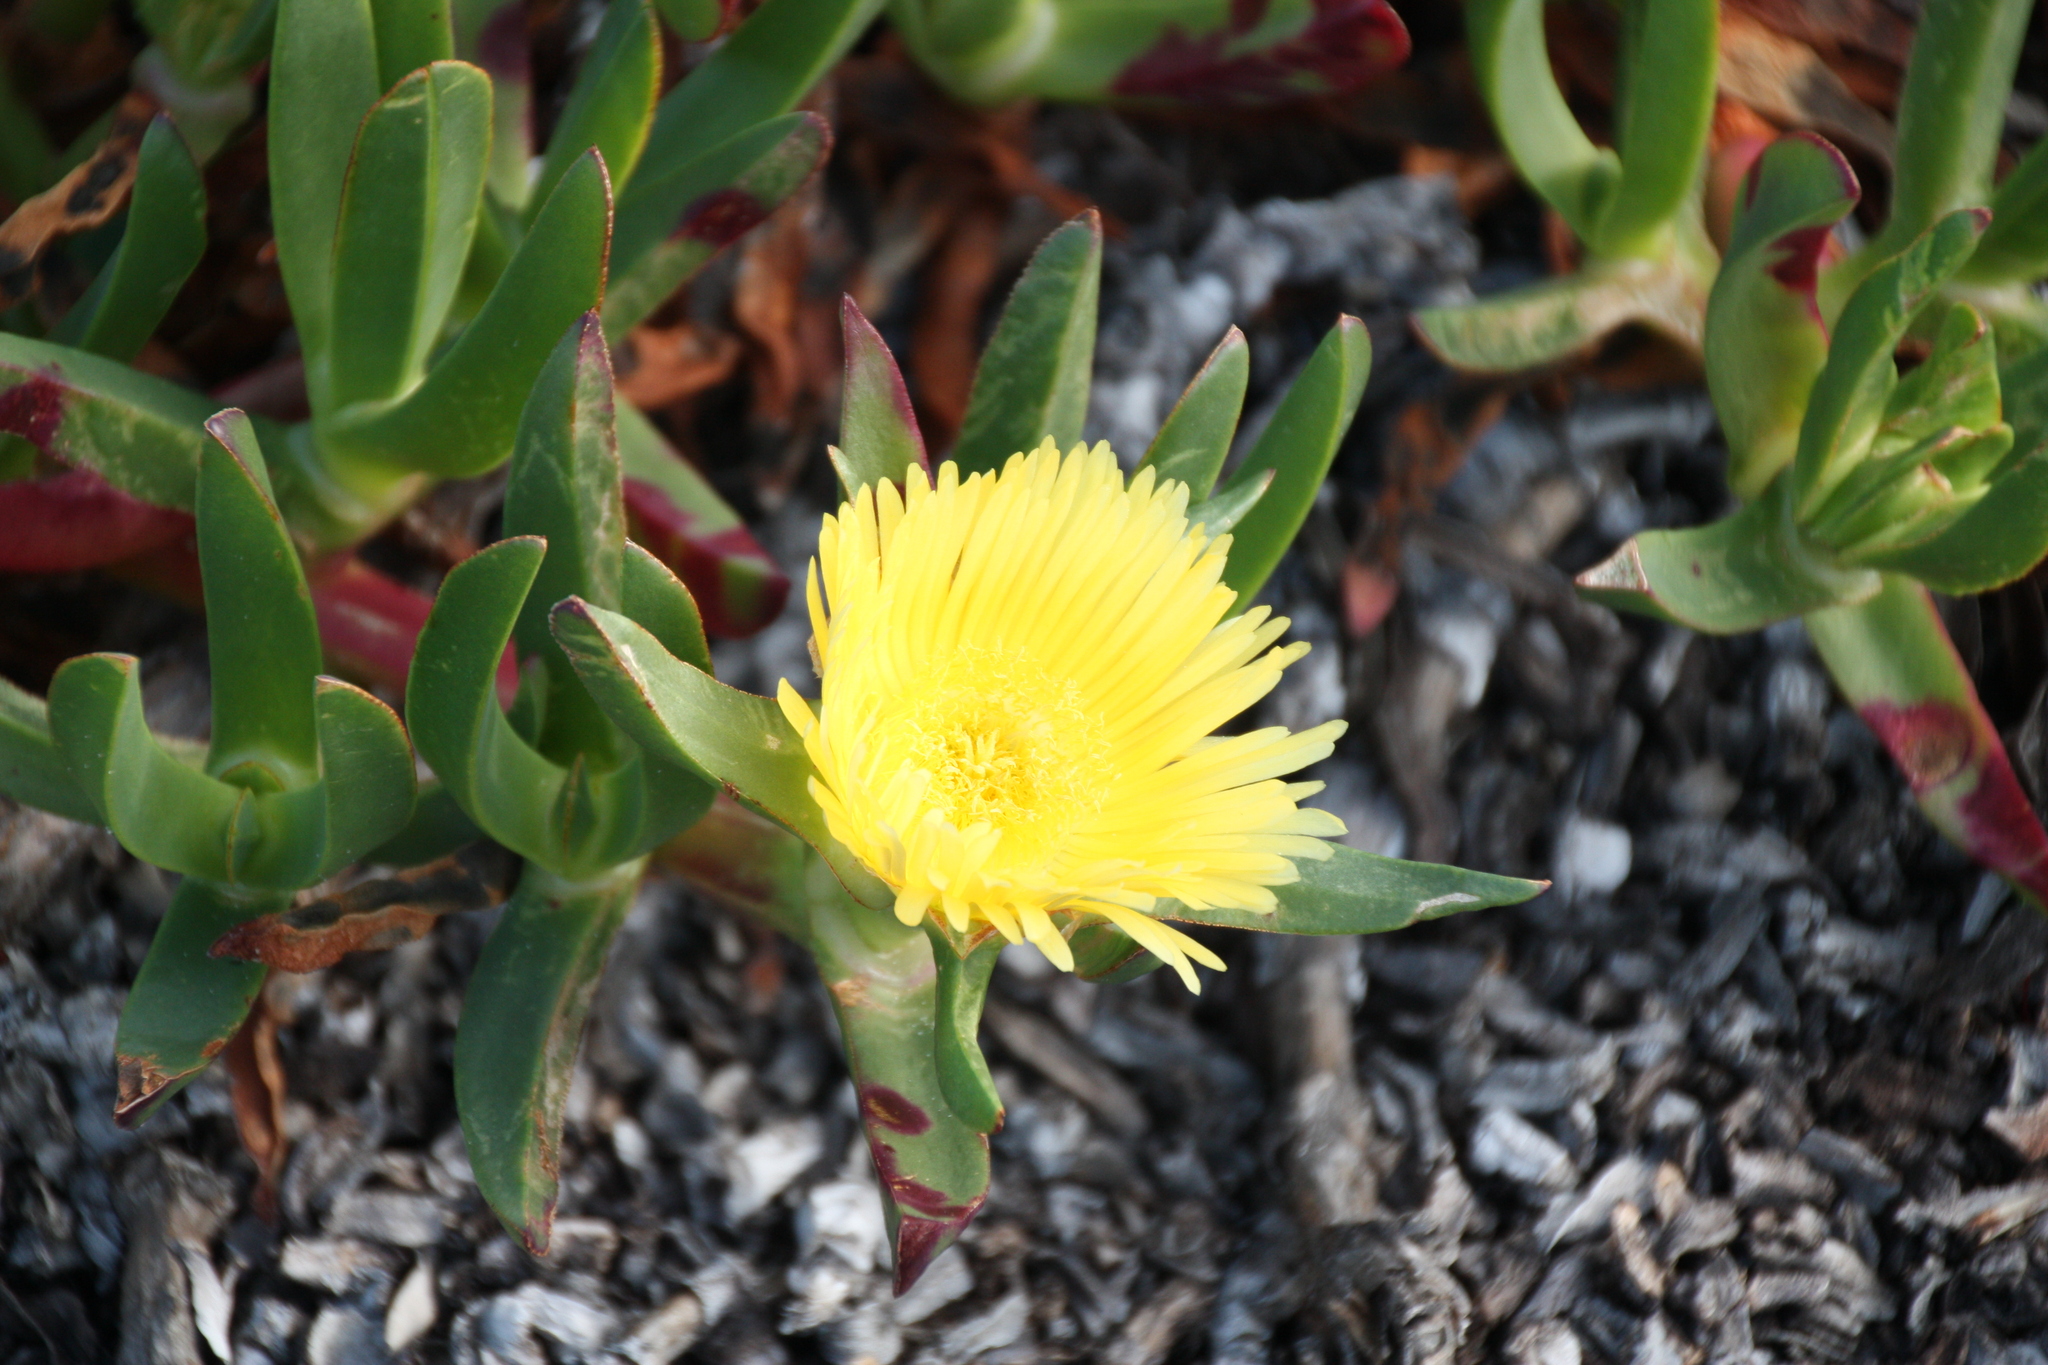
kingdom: Plantae
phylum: Tracheophyta
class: Magnoliopsida
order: Caryophyllales
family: Aizoaceae
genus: Carpobrotus
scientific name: Carpobrotus edulis
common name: Hottentot-fig
